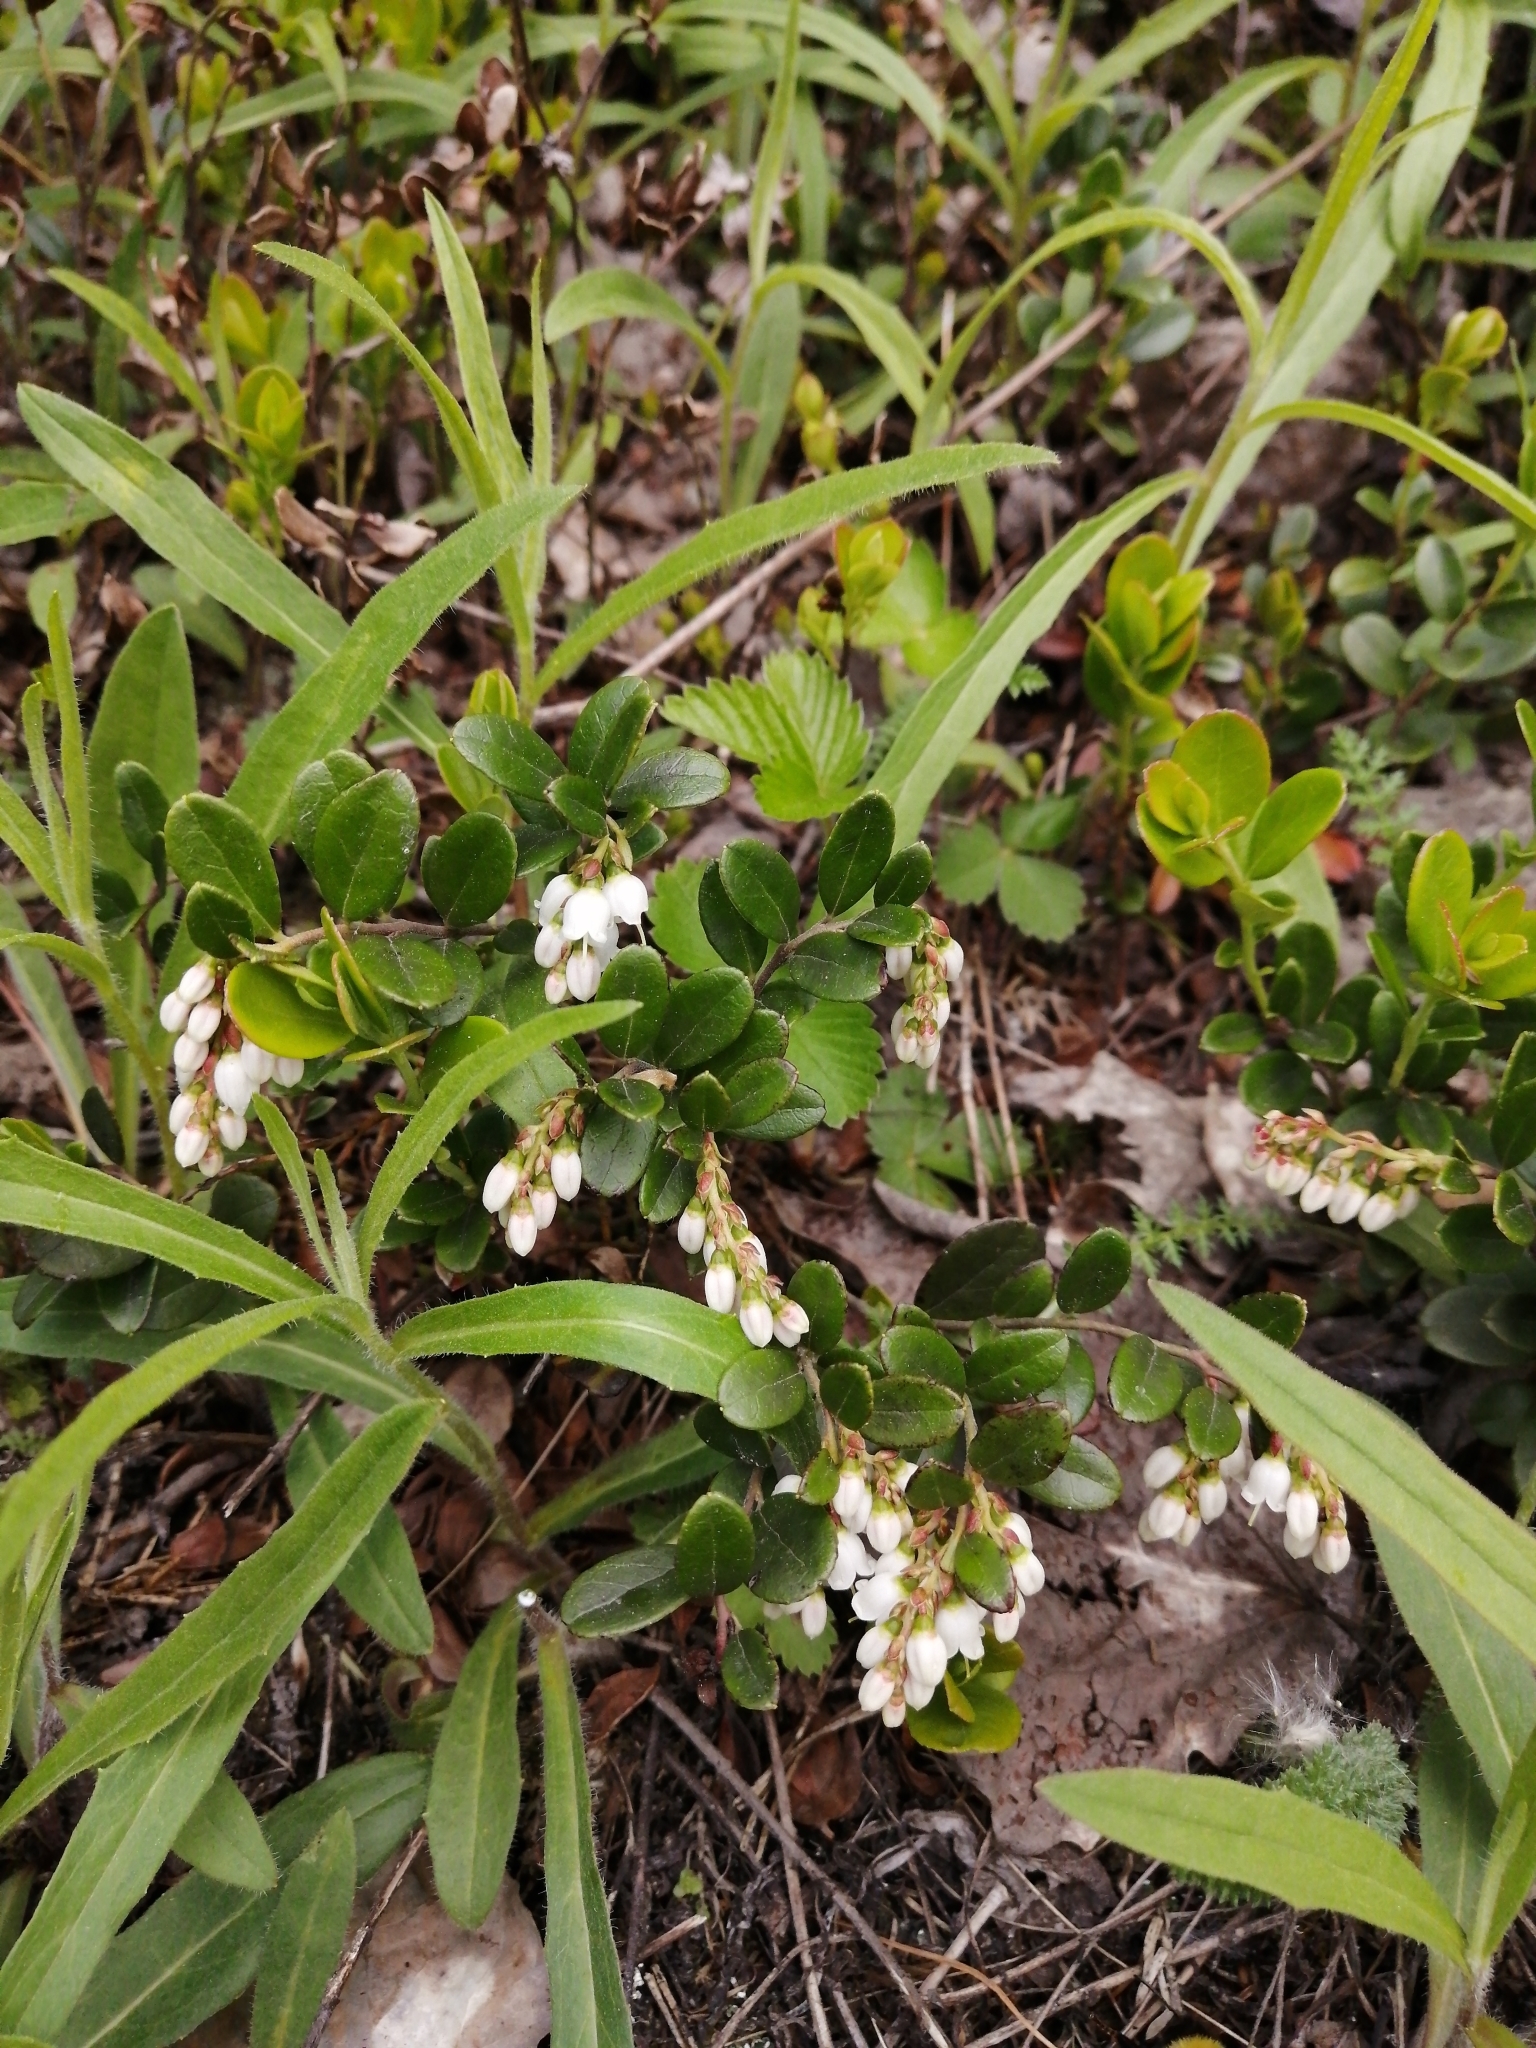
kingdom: Plantae
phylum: Tracheophyta
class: Magnoliopsida
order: Ericales
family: Ericaceae
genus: Vaccinium
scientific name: Vaccinium vitis-idaea
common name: Cowberry
